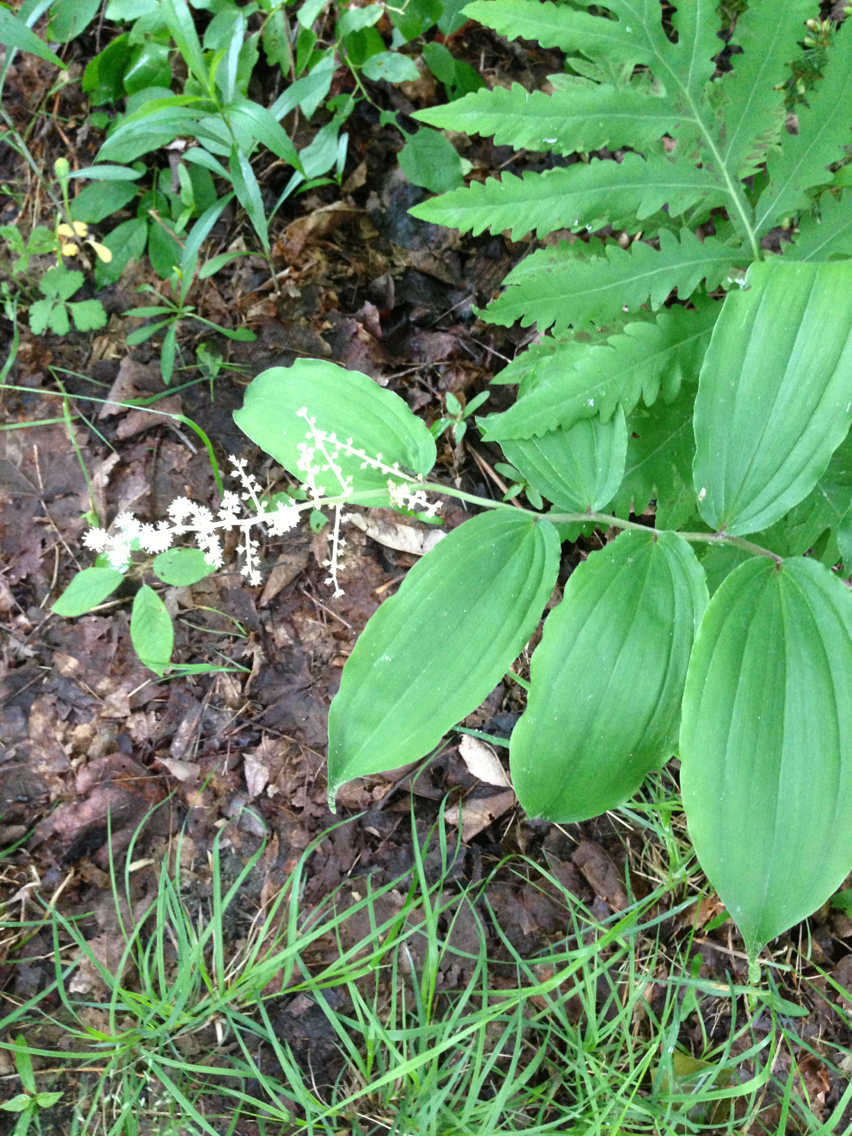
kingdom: Plantae
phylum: Tracheophyta
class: Liliopsida
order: Asparagales
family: Asparagaceae
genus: Maianthemum
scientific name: Maianthemum racemosum
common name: False spikenard
